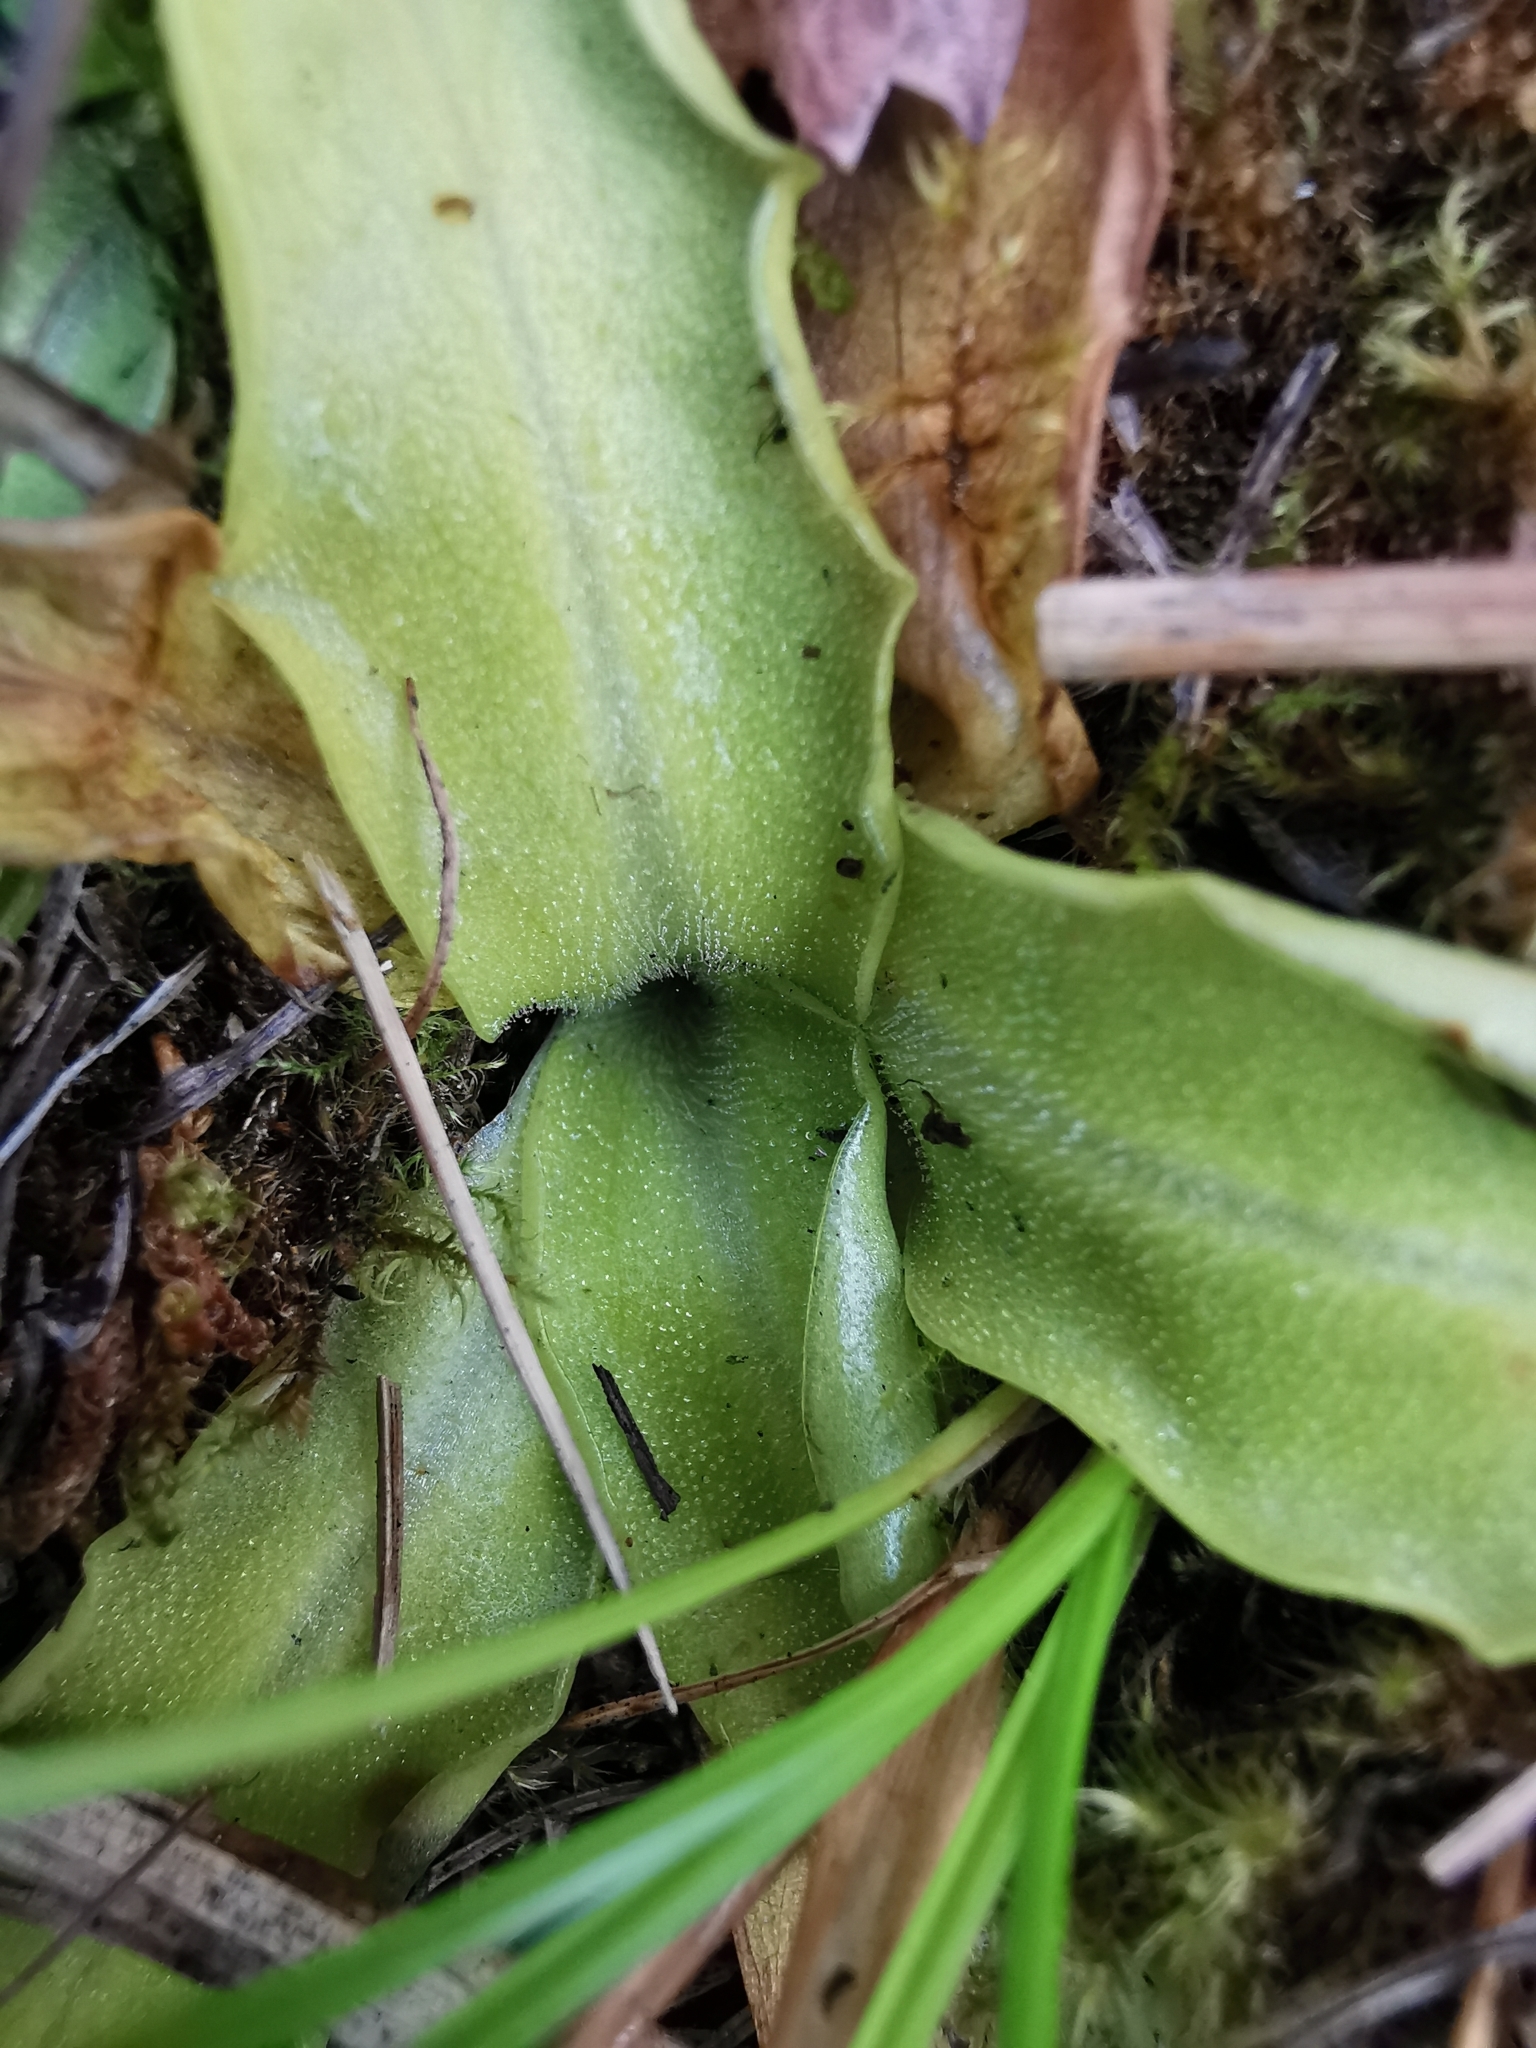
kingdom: Plantae
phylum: Tracheophyta
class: Magnoliopsida
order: Lamiales
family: Lentibulariaceae
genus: Pinguicula
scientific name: Pinguicula vulgaris
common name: Common butterwort
